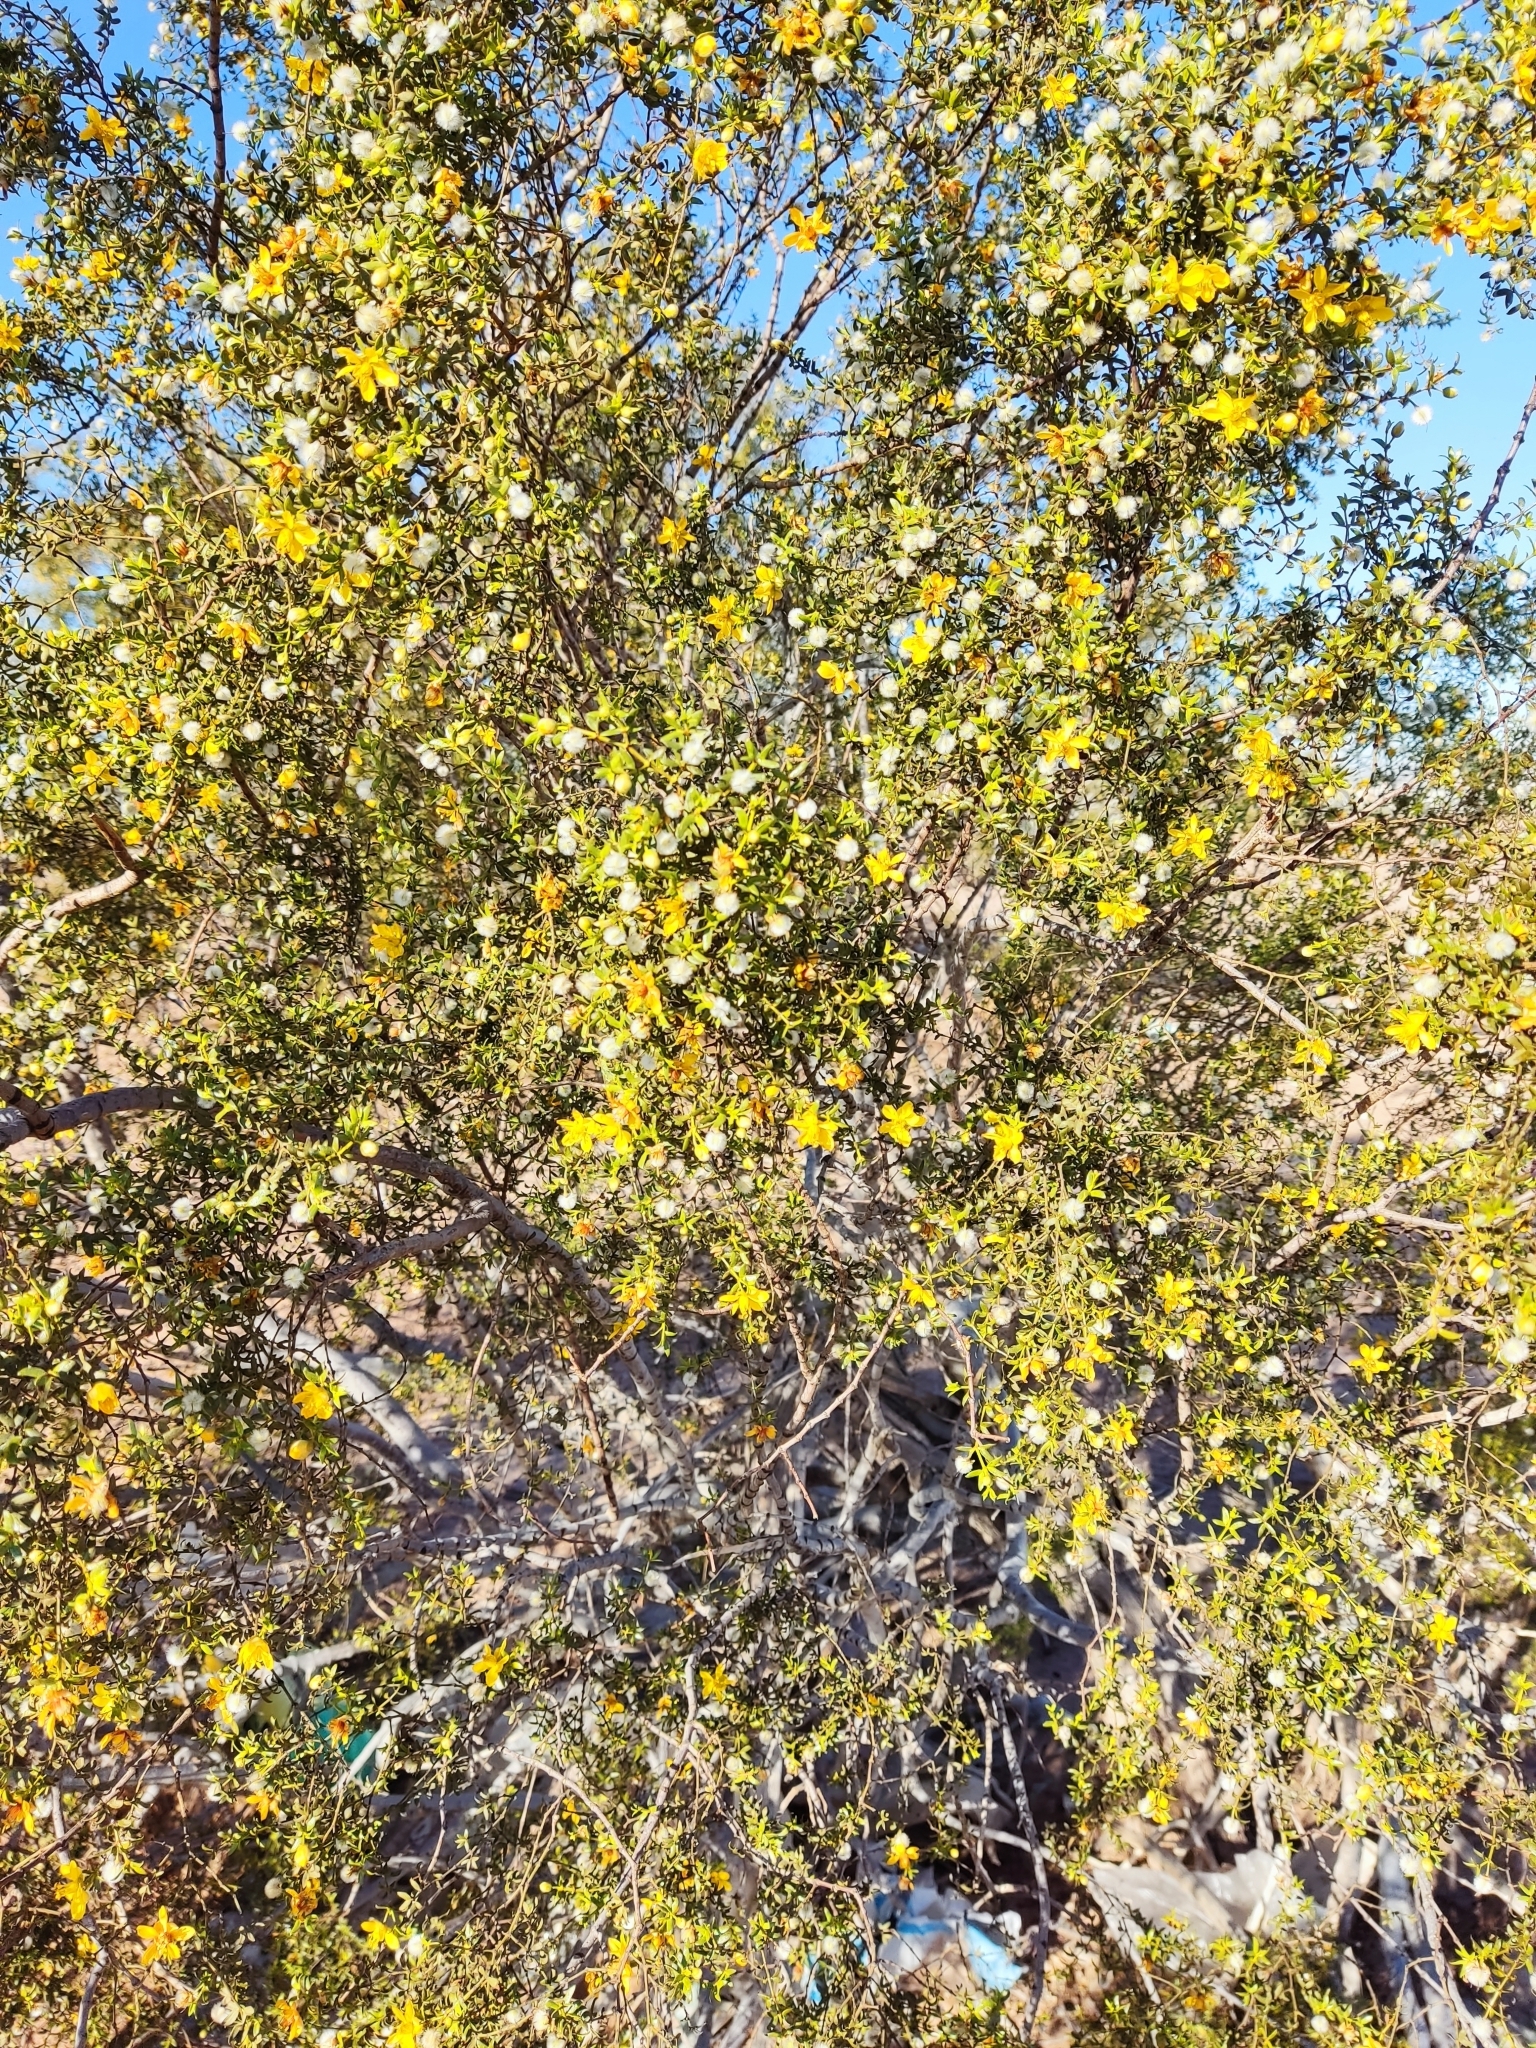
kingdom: Plantae
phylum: Tracheophyta
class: Magnoliopsida
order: Zygophyllales
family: Zygophyllaceae
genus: Larrea
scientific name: Larrea tridentata
